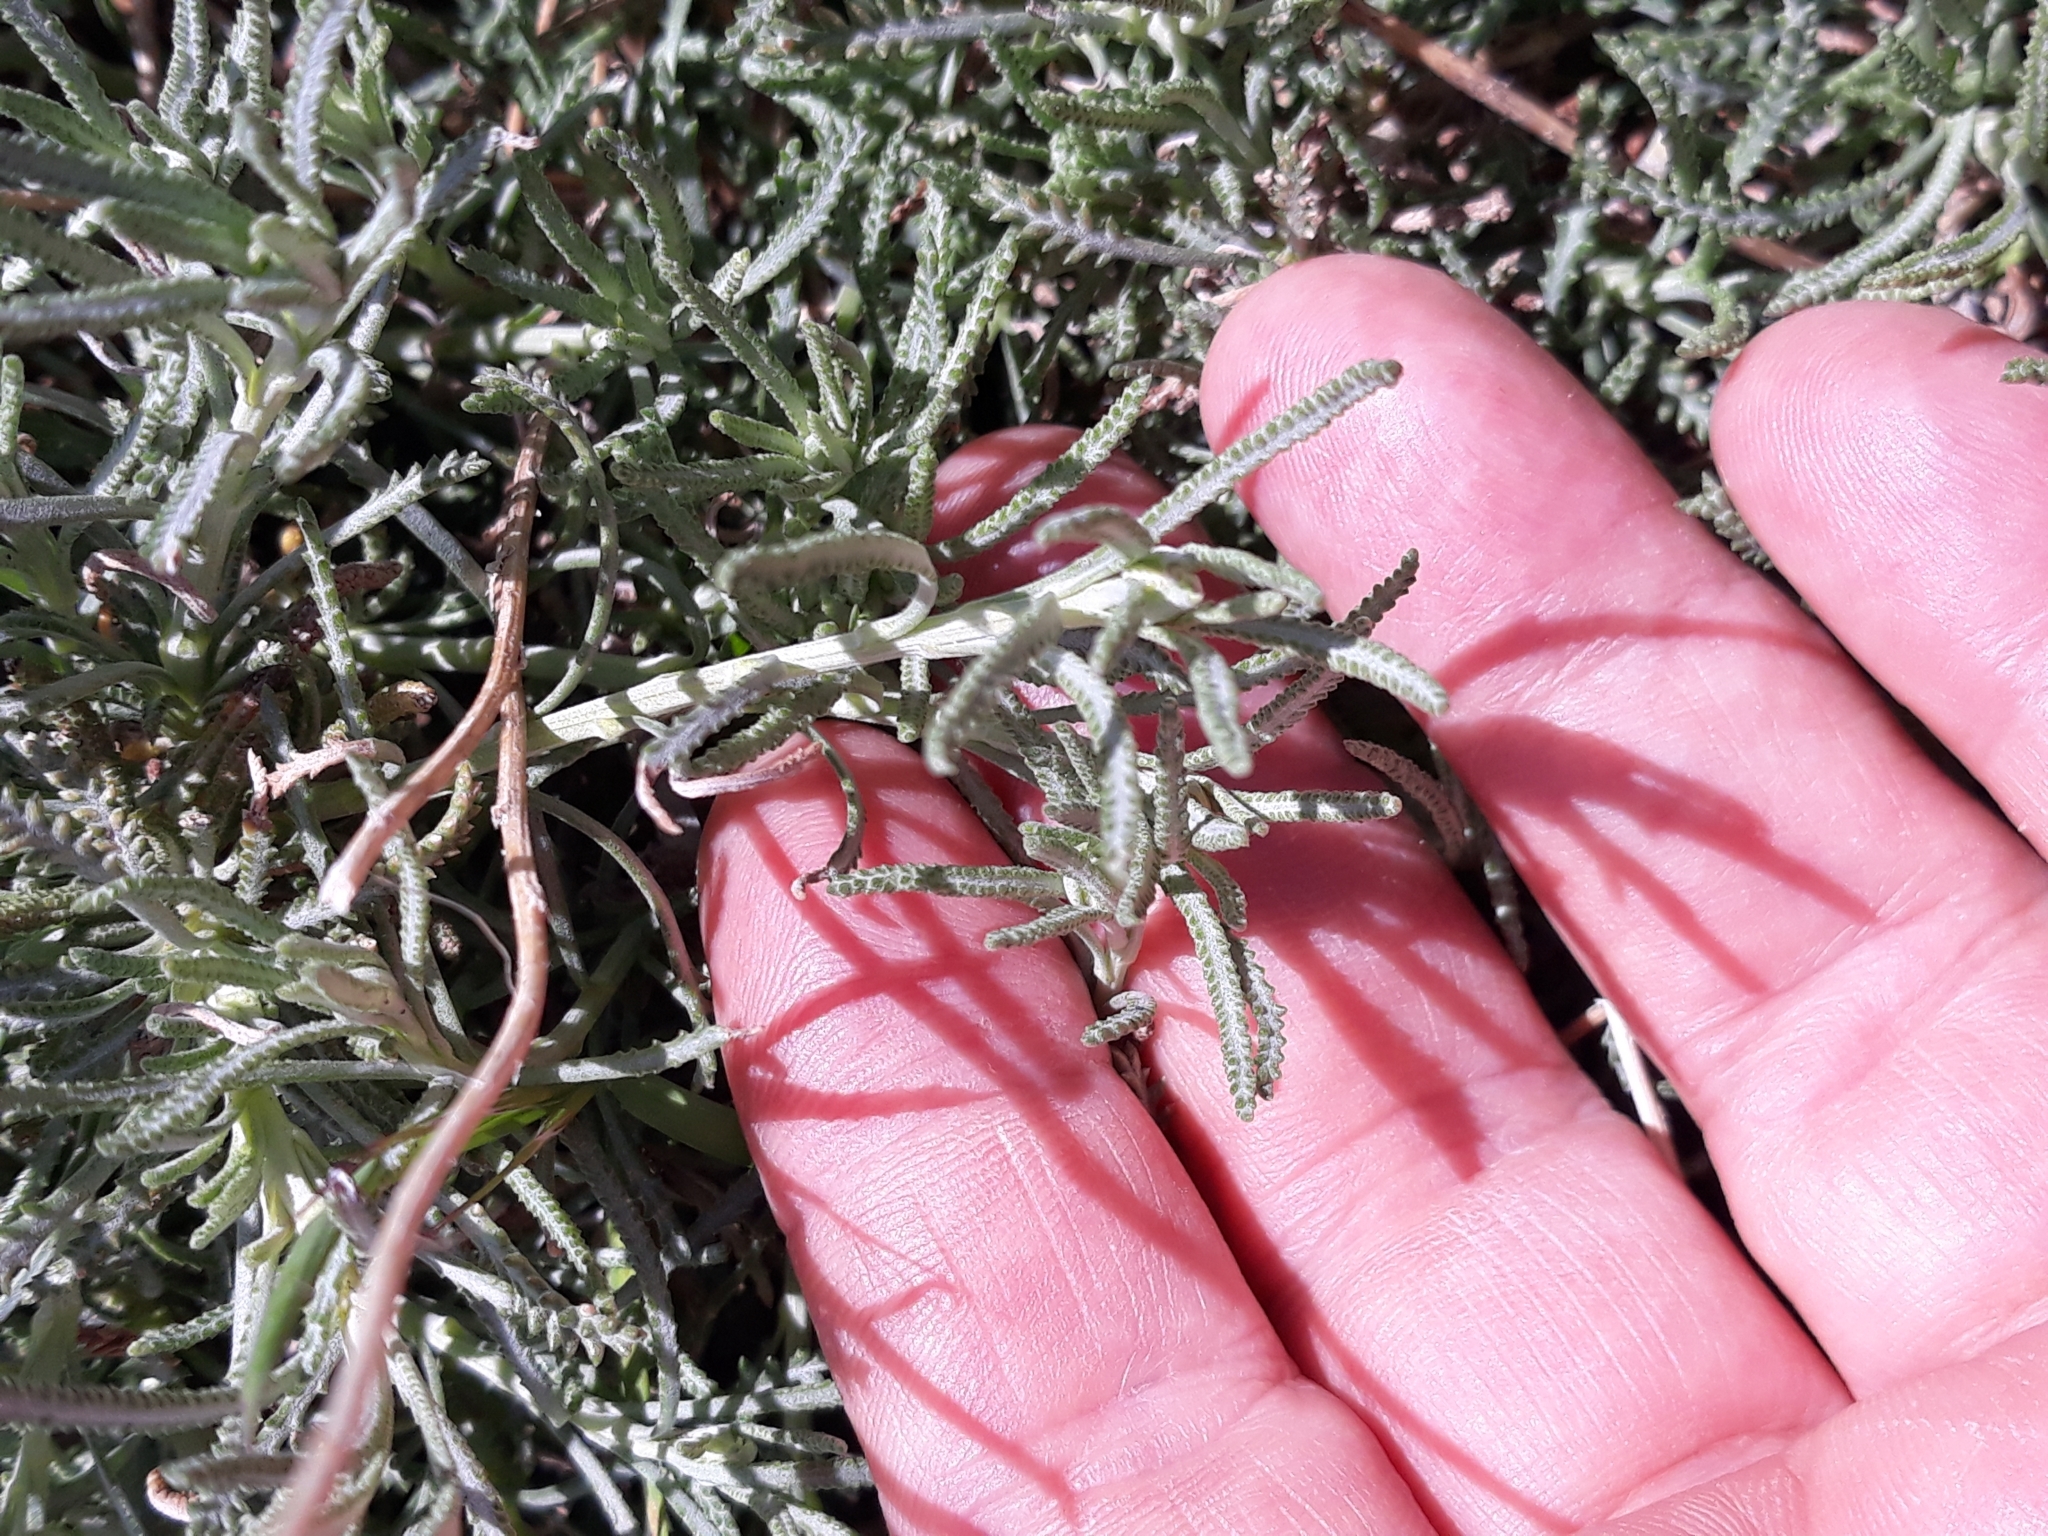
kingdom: Plantae
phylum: Tracheophyta
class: Magnoliopsida
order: Asterales
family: Asteraceae
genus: Santolina
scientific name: Santolina pectinata
